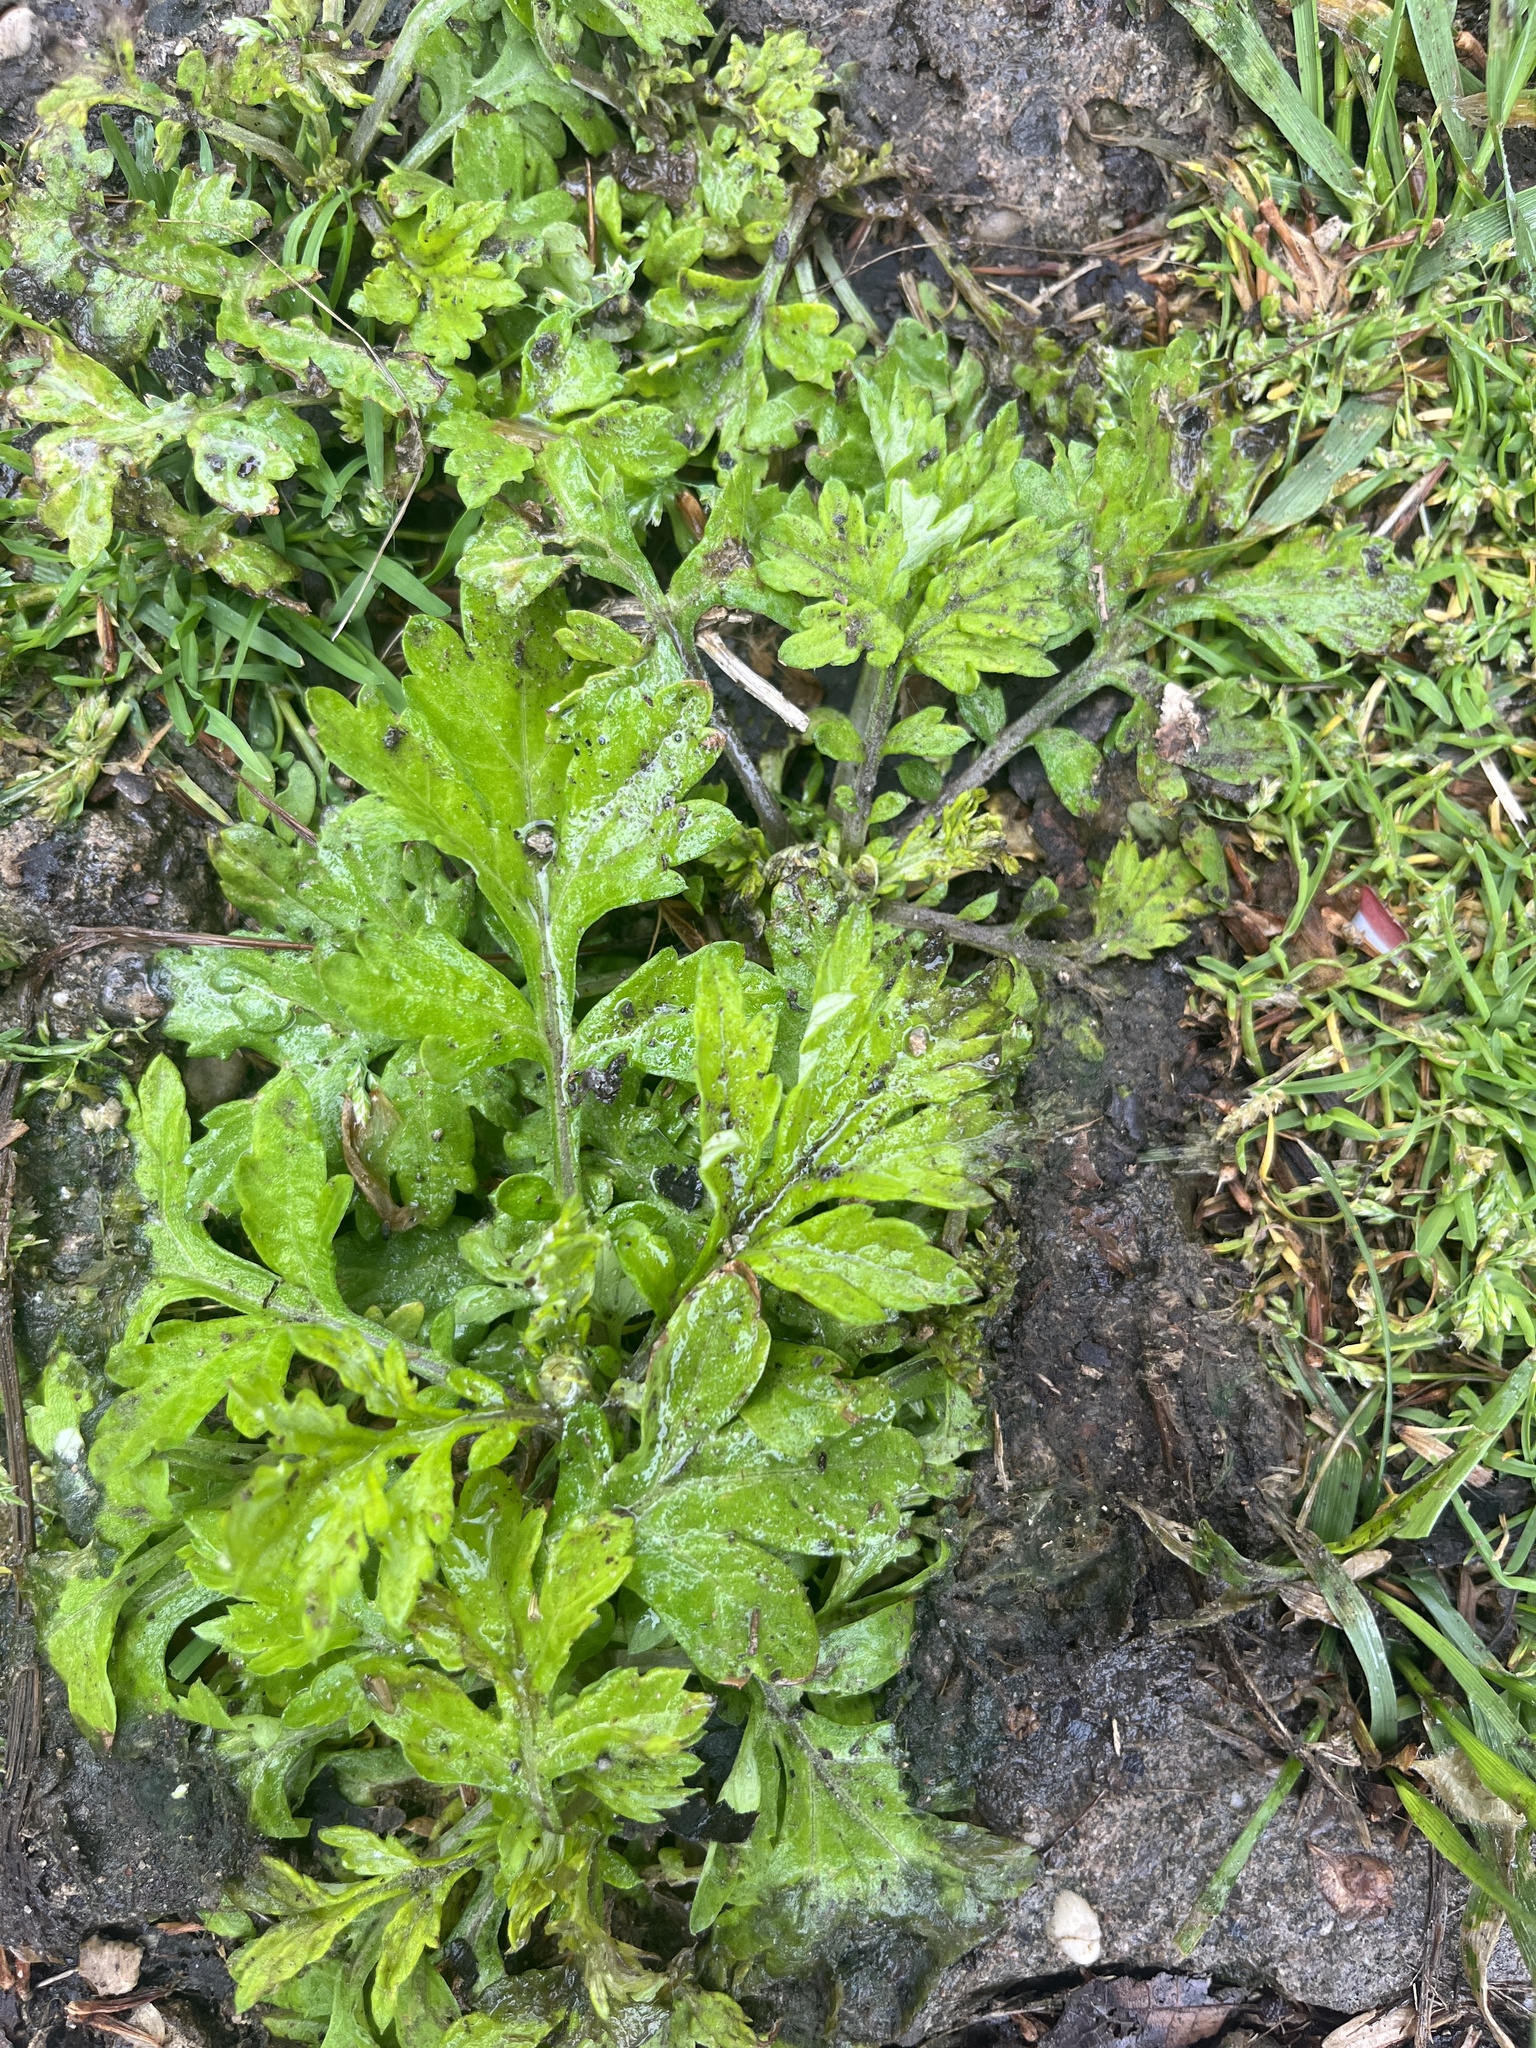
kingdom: Plantae
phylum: Tracheophyta
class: Magnoliopsida
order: Asterales
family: Asteraceae
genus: Artemisia
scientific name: Artemisia vulgaris
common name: Mugwort
